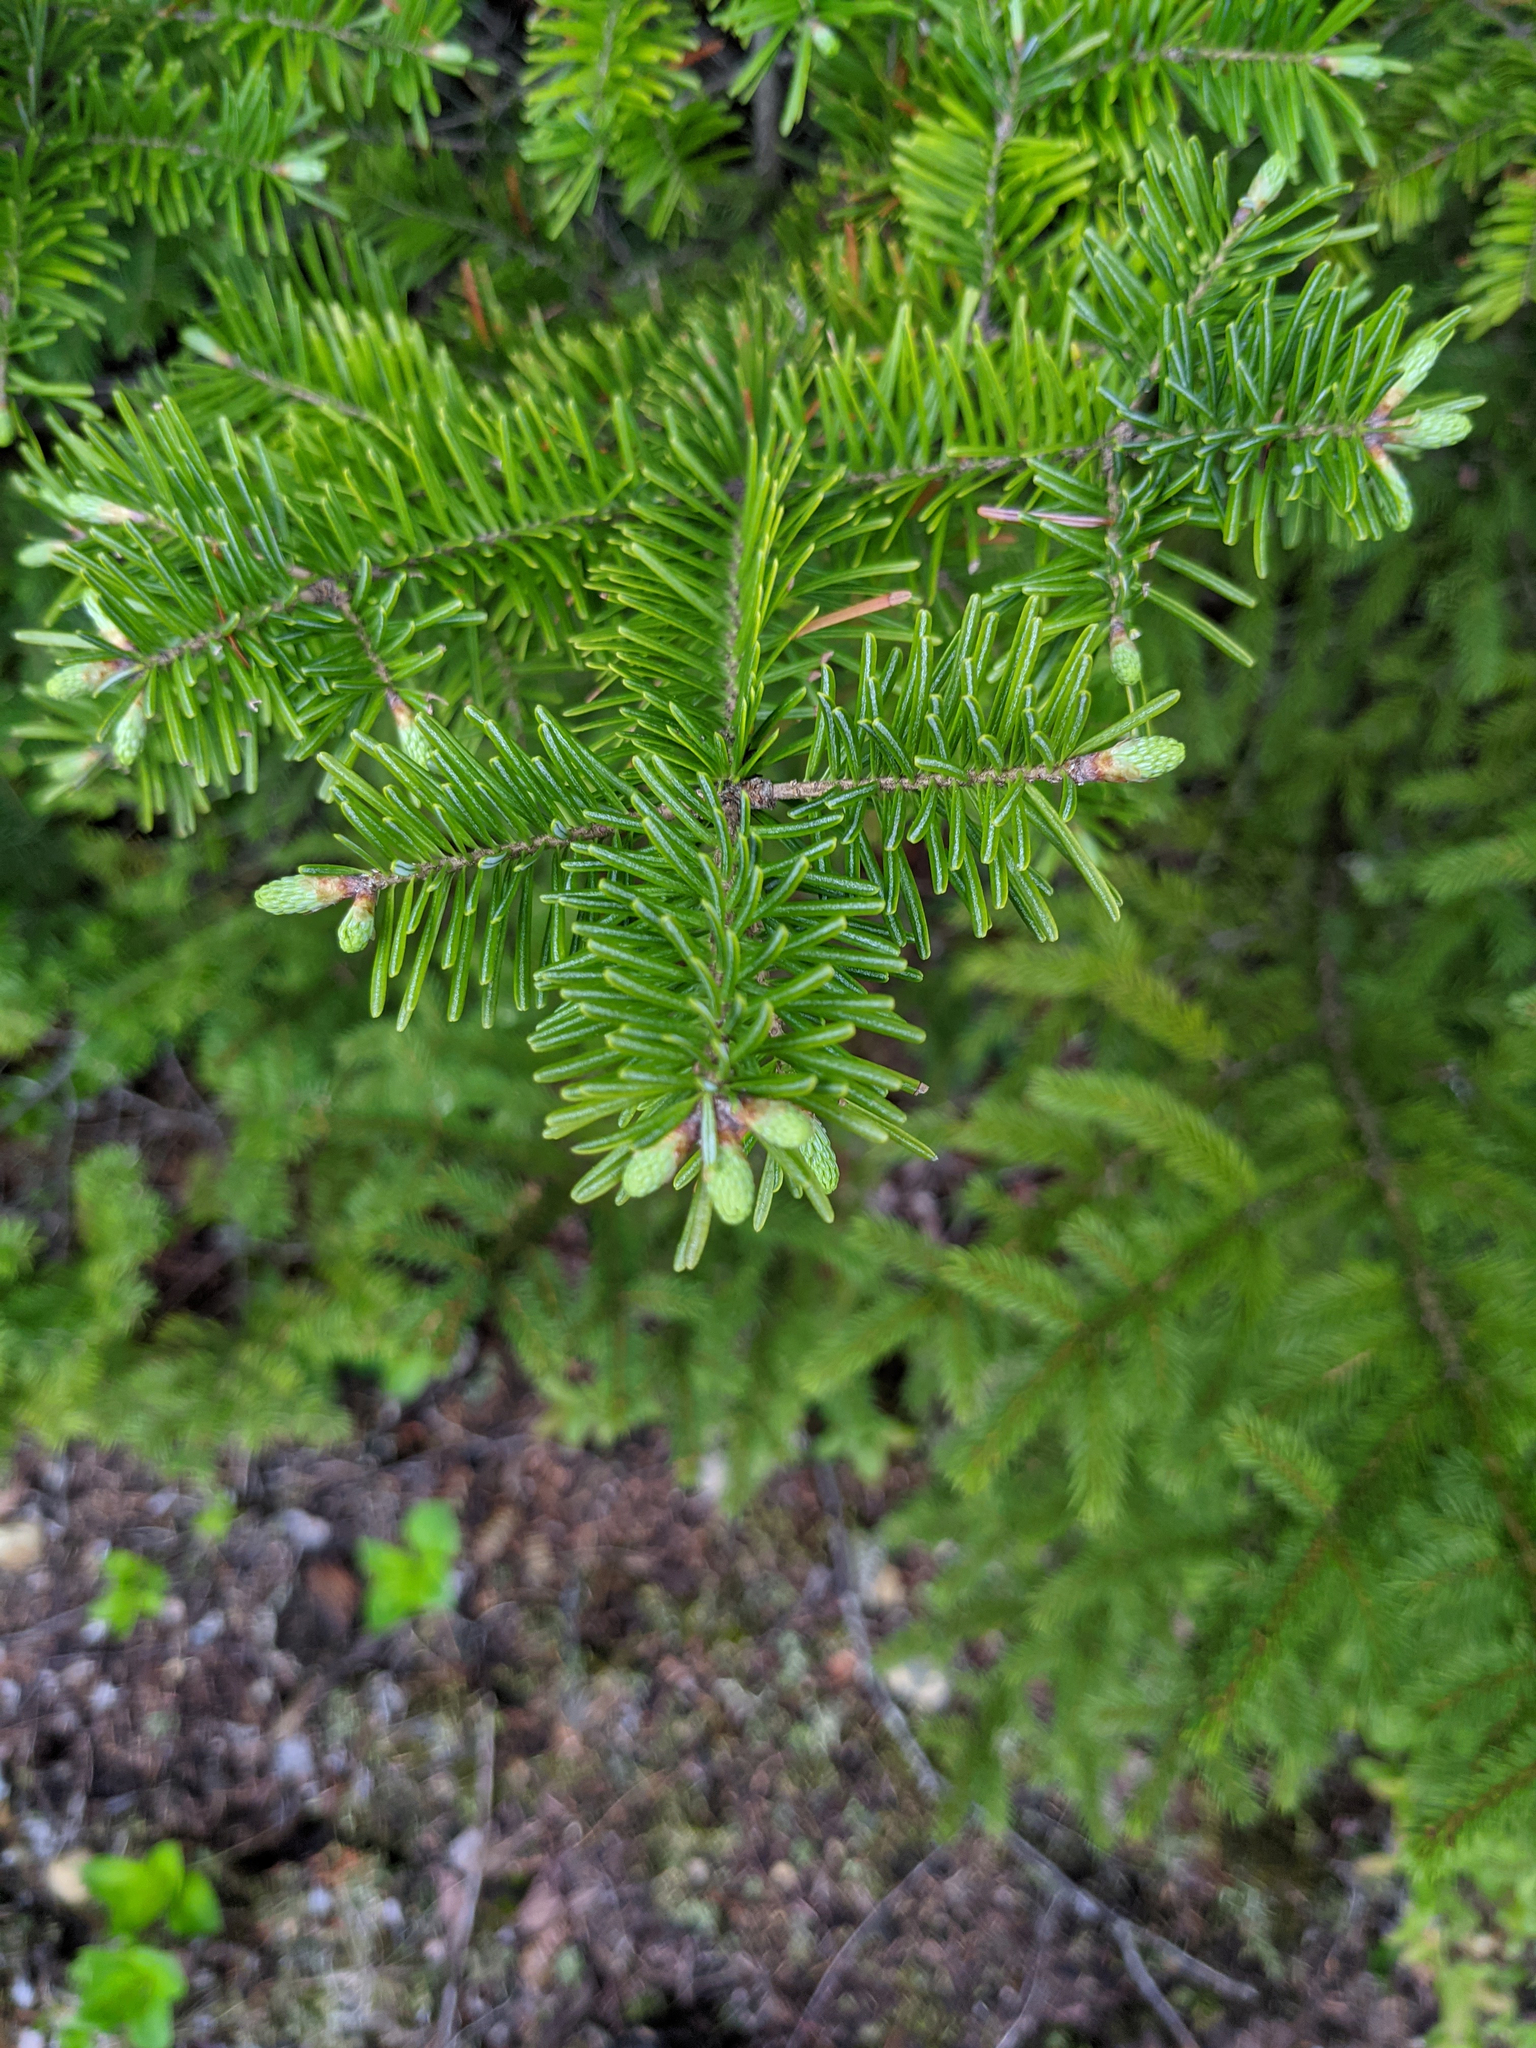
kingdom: Plantae
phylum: Tracheophyta
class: Pinopsida
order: Pinales
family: Pinaceae
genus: Abies
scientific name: Abies balsamea
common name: Balsam fir
